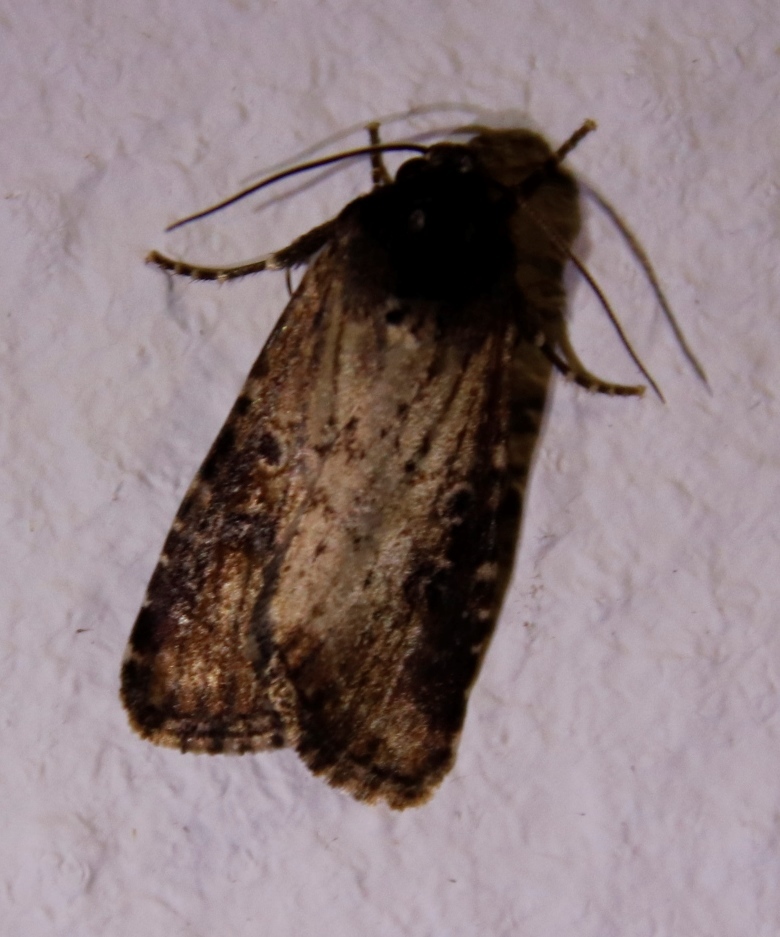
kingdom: Animalia
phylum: Arthropoda
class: Insecta
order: Lepidoptera
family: Erebidae
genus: Tachosa
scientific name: Tachosa
